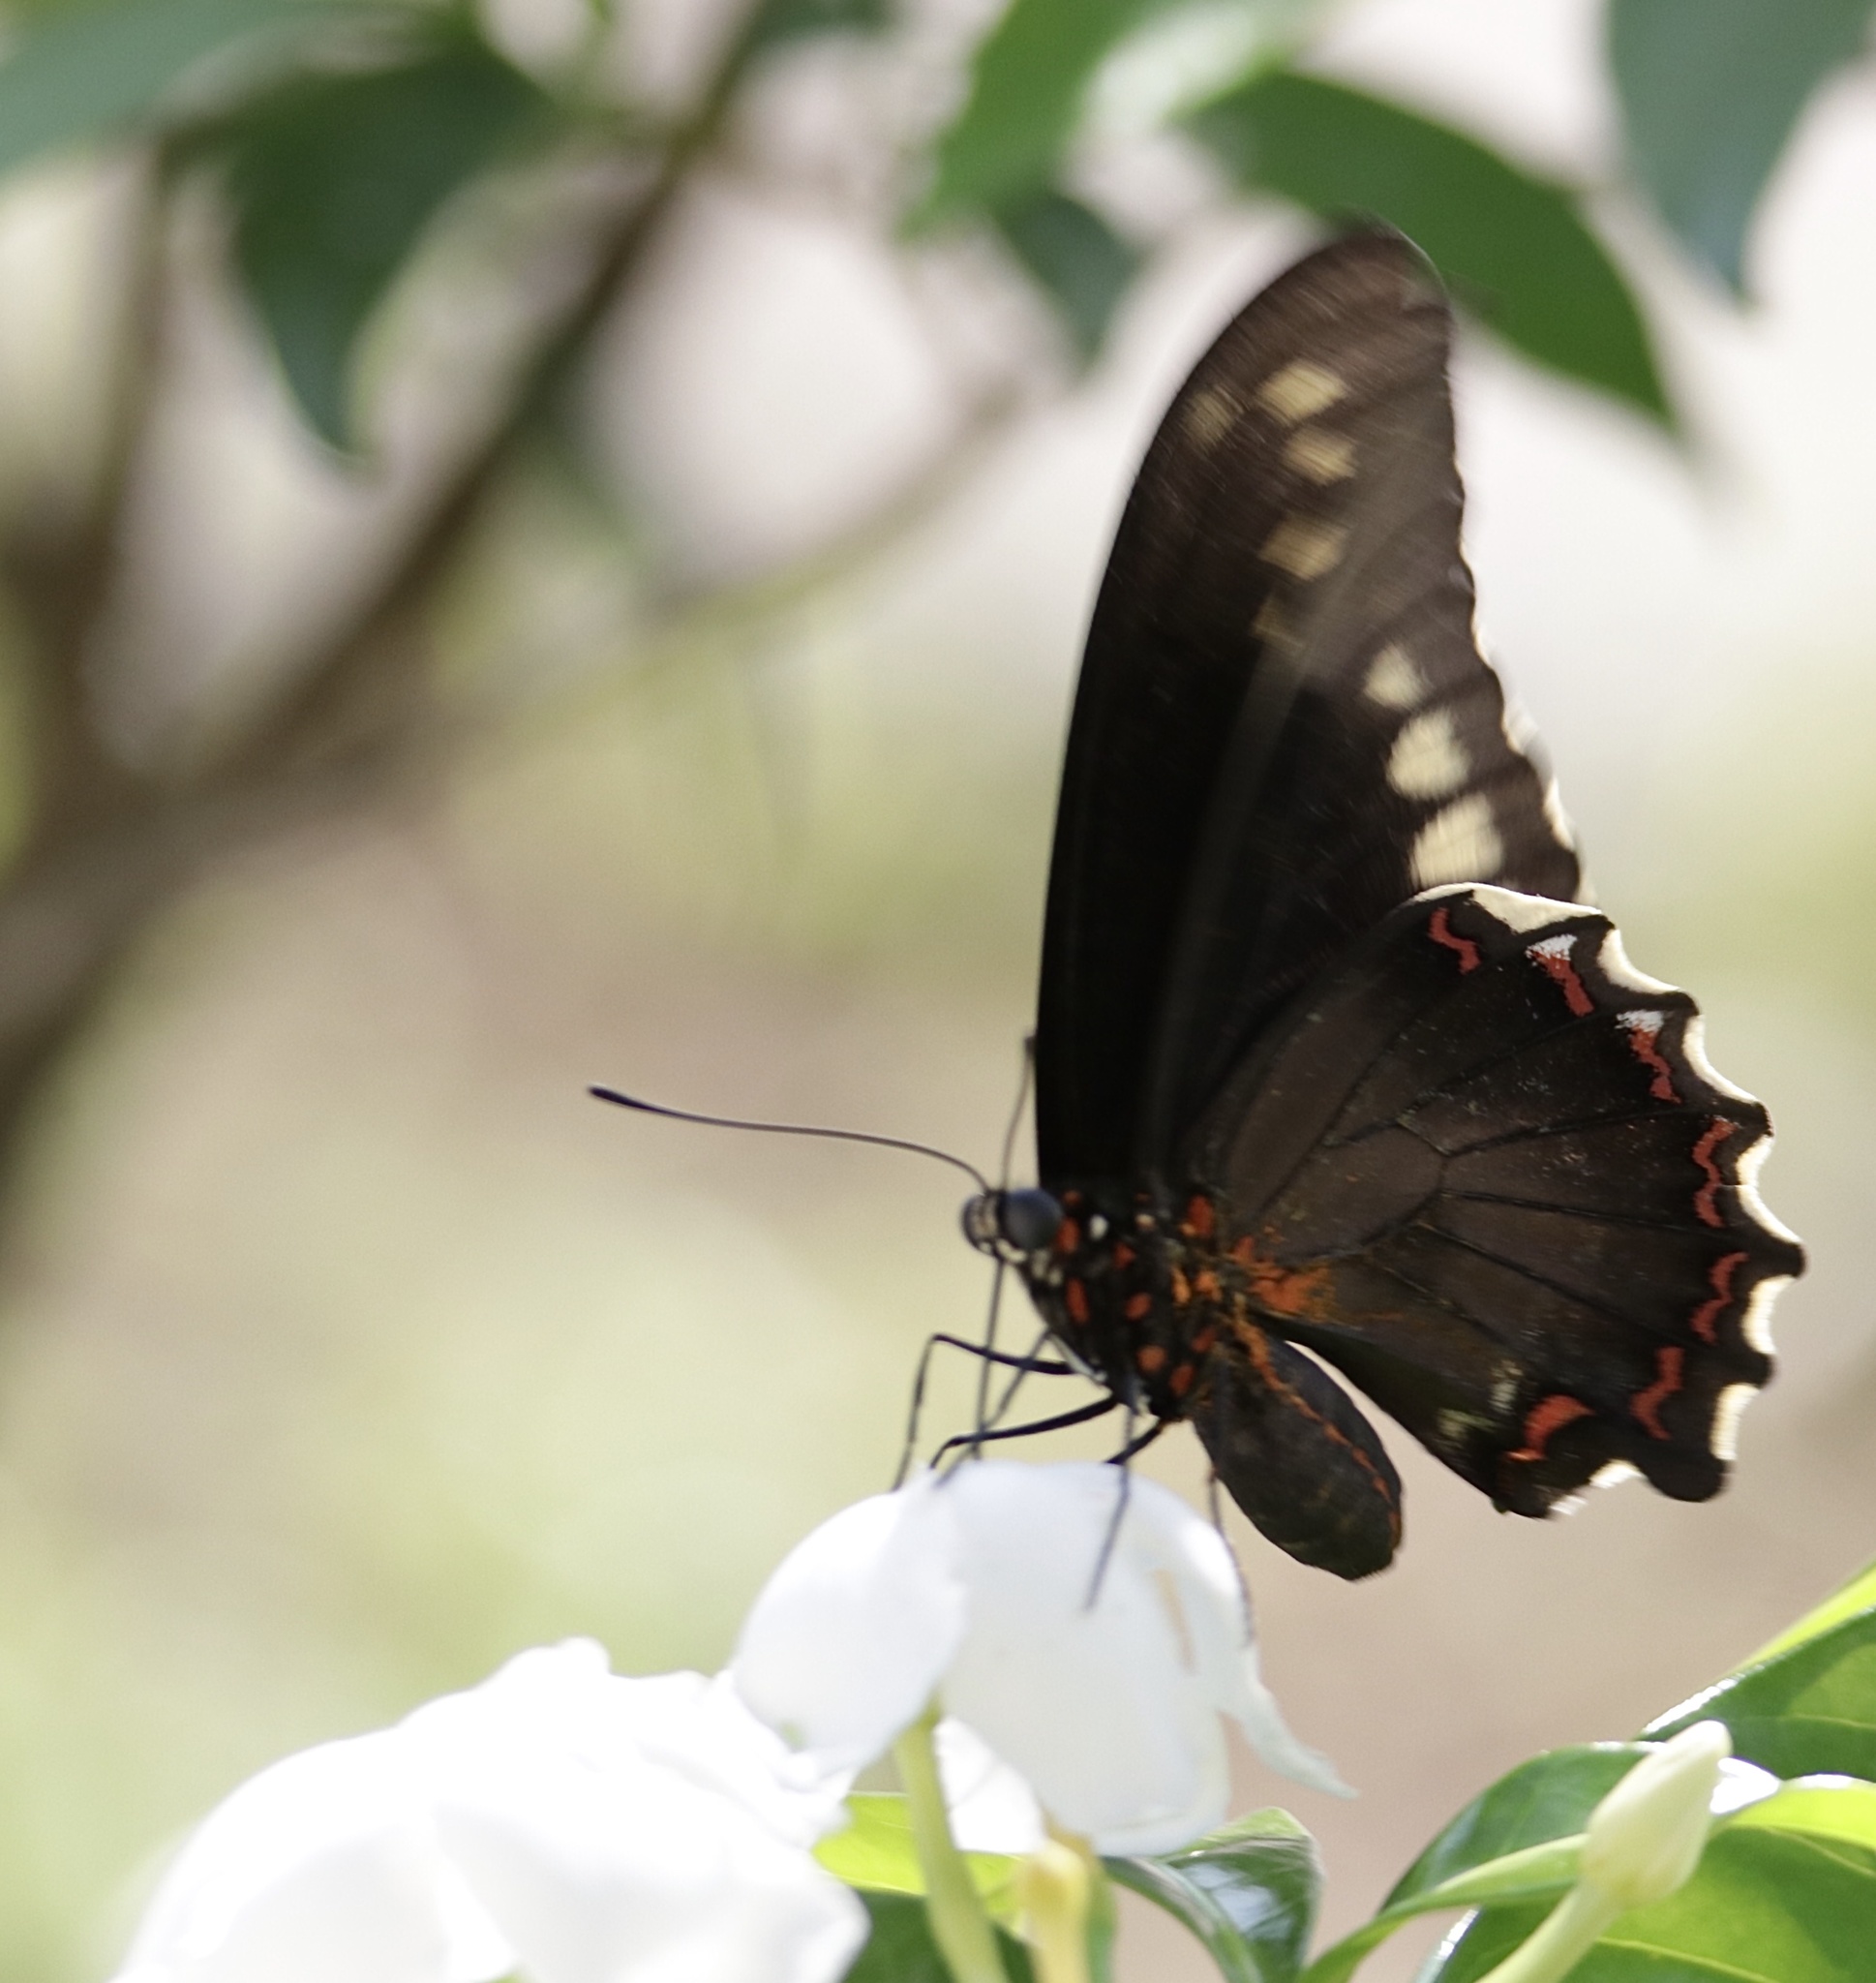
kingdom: Animalia
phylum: Arthropoda
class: Insecta
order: Lepidoptera
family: Papilionidae
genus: Battus
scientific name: Battus polydamas
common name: Polydamas swallowtail
